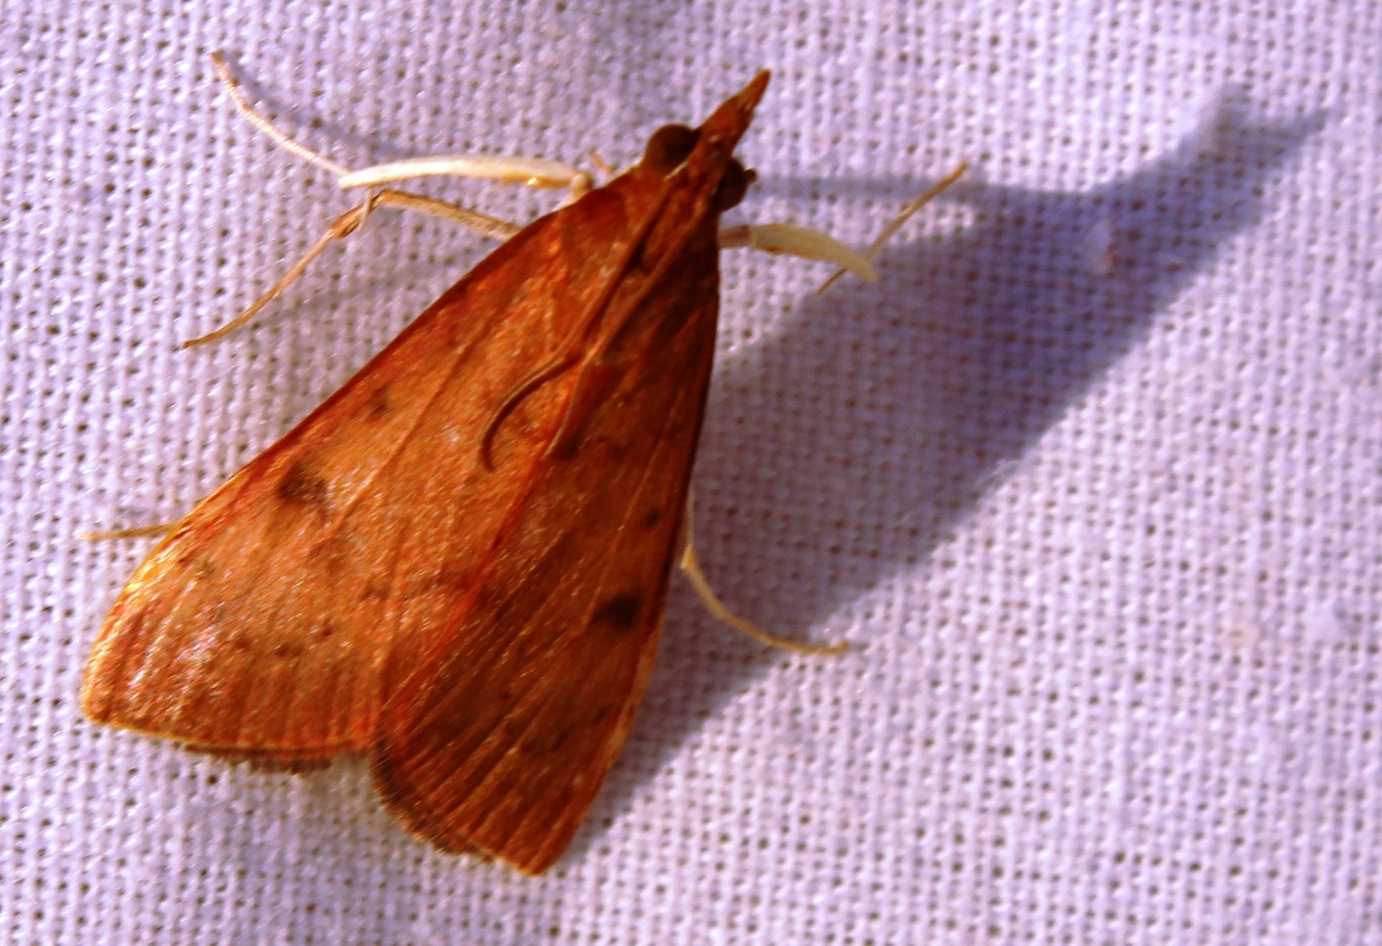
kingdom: Animalia
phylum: Arthropoda
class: Insecta
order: Lepidoptera
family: Crambidae
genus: Uresiphita
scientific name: Uresiphita gilvata
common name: Yellow-underwing pearl
